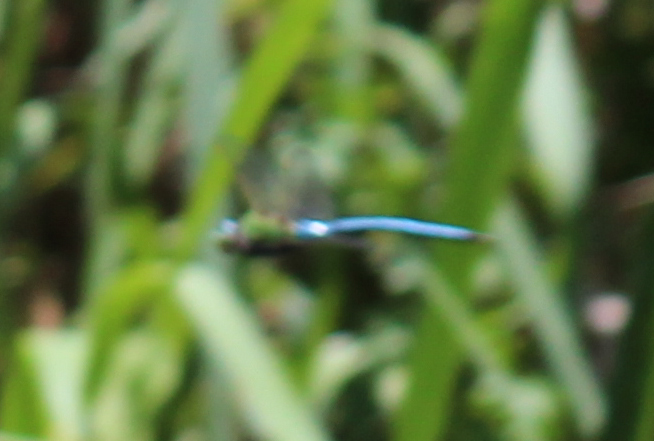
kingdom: Animalia
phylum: Arthropoda
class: Insecta
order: Odonata
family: Aeshnidae
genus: Anax
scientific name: Anax imperator
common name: Emperor dragonfly
